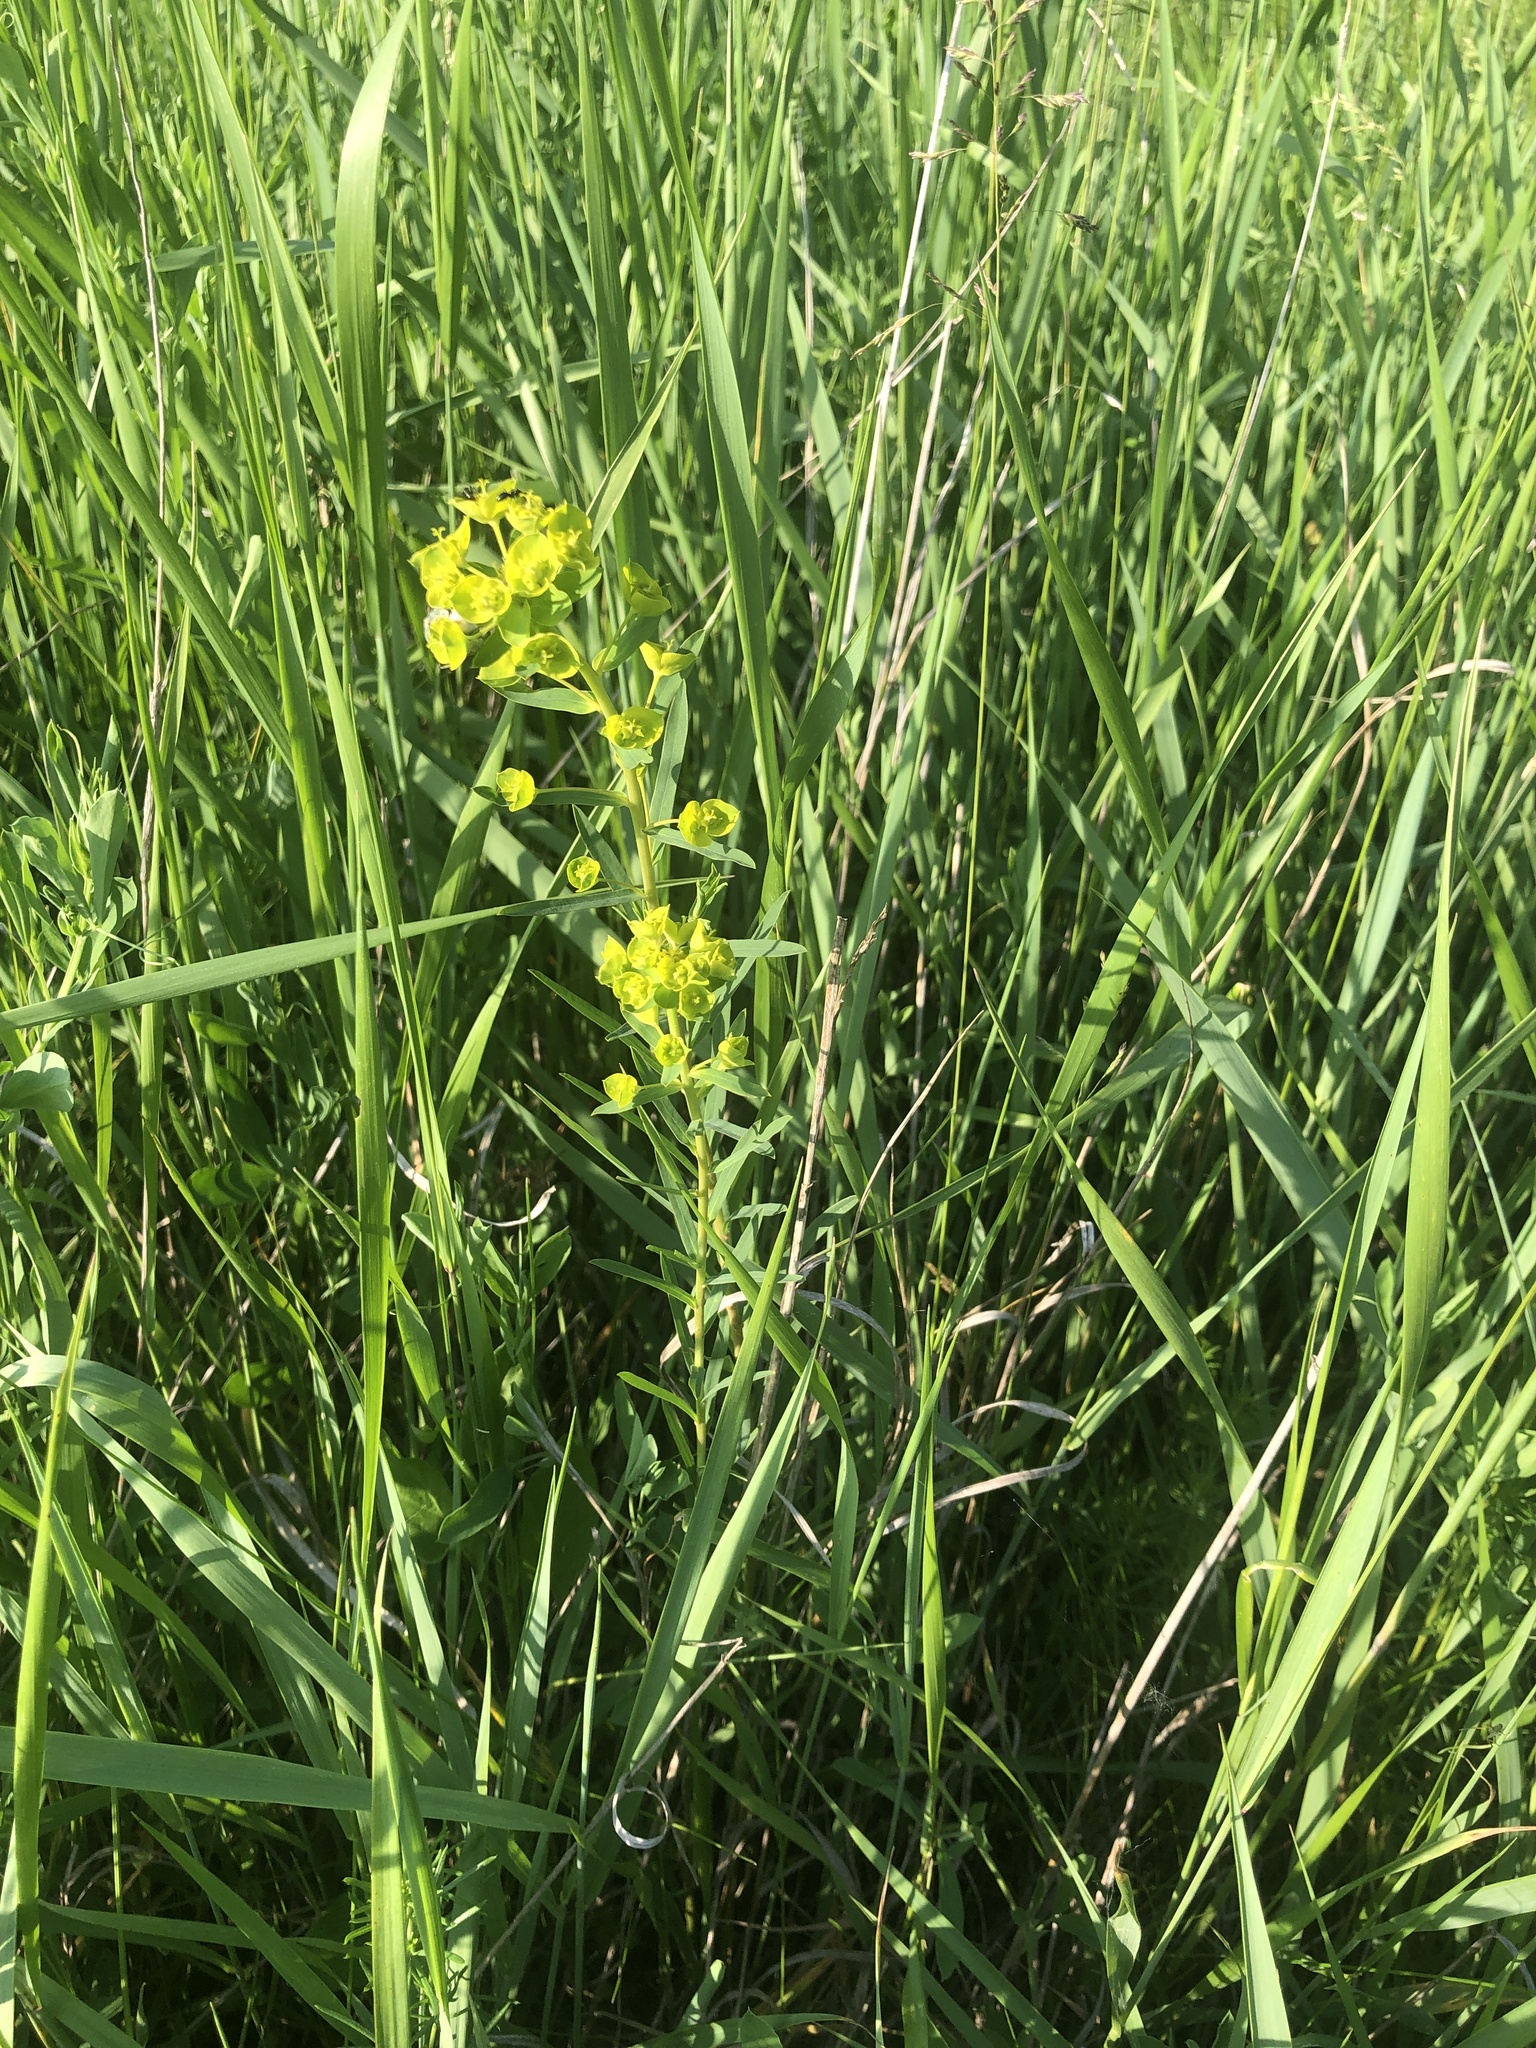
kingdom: Plantae
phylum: Tracheophyta
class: Magnoliopsida
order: Malpighiales
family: Euphorbiaceae
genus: Euphorbia
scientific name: Euphorbia virgata
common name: Leafy spurge
